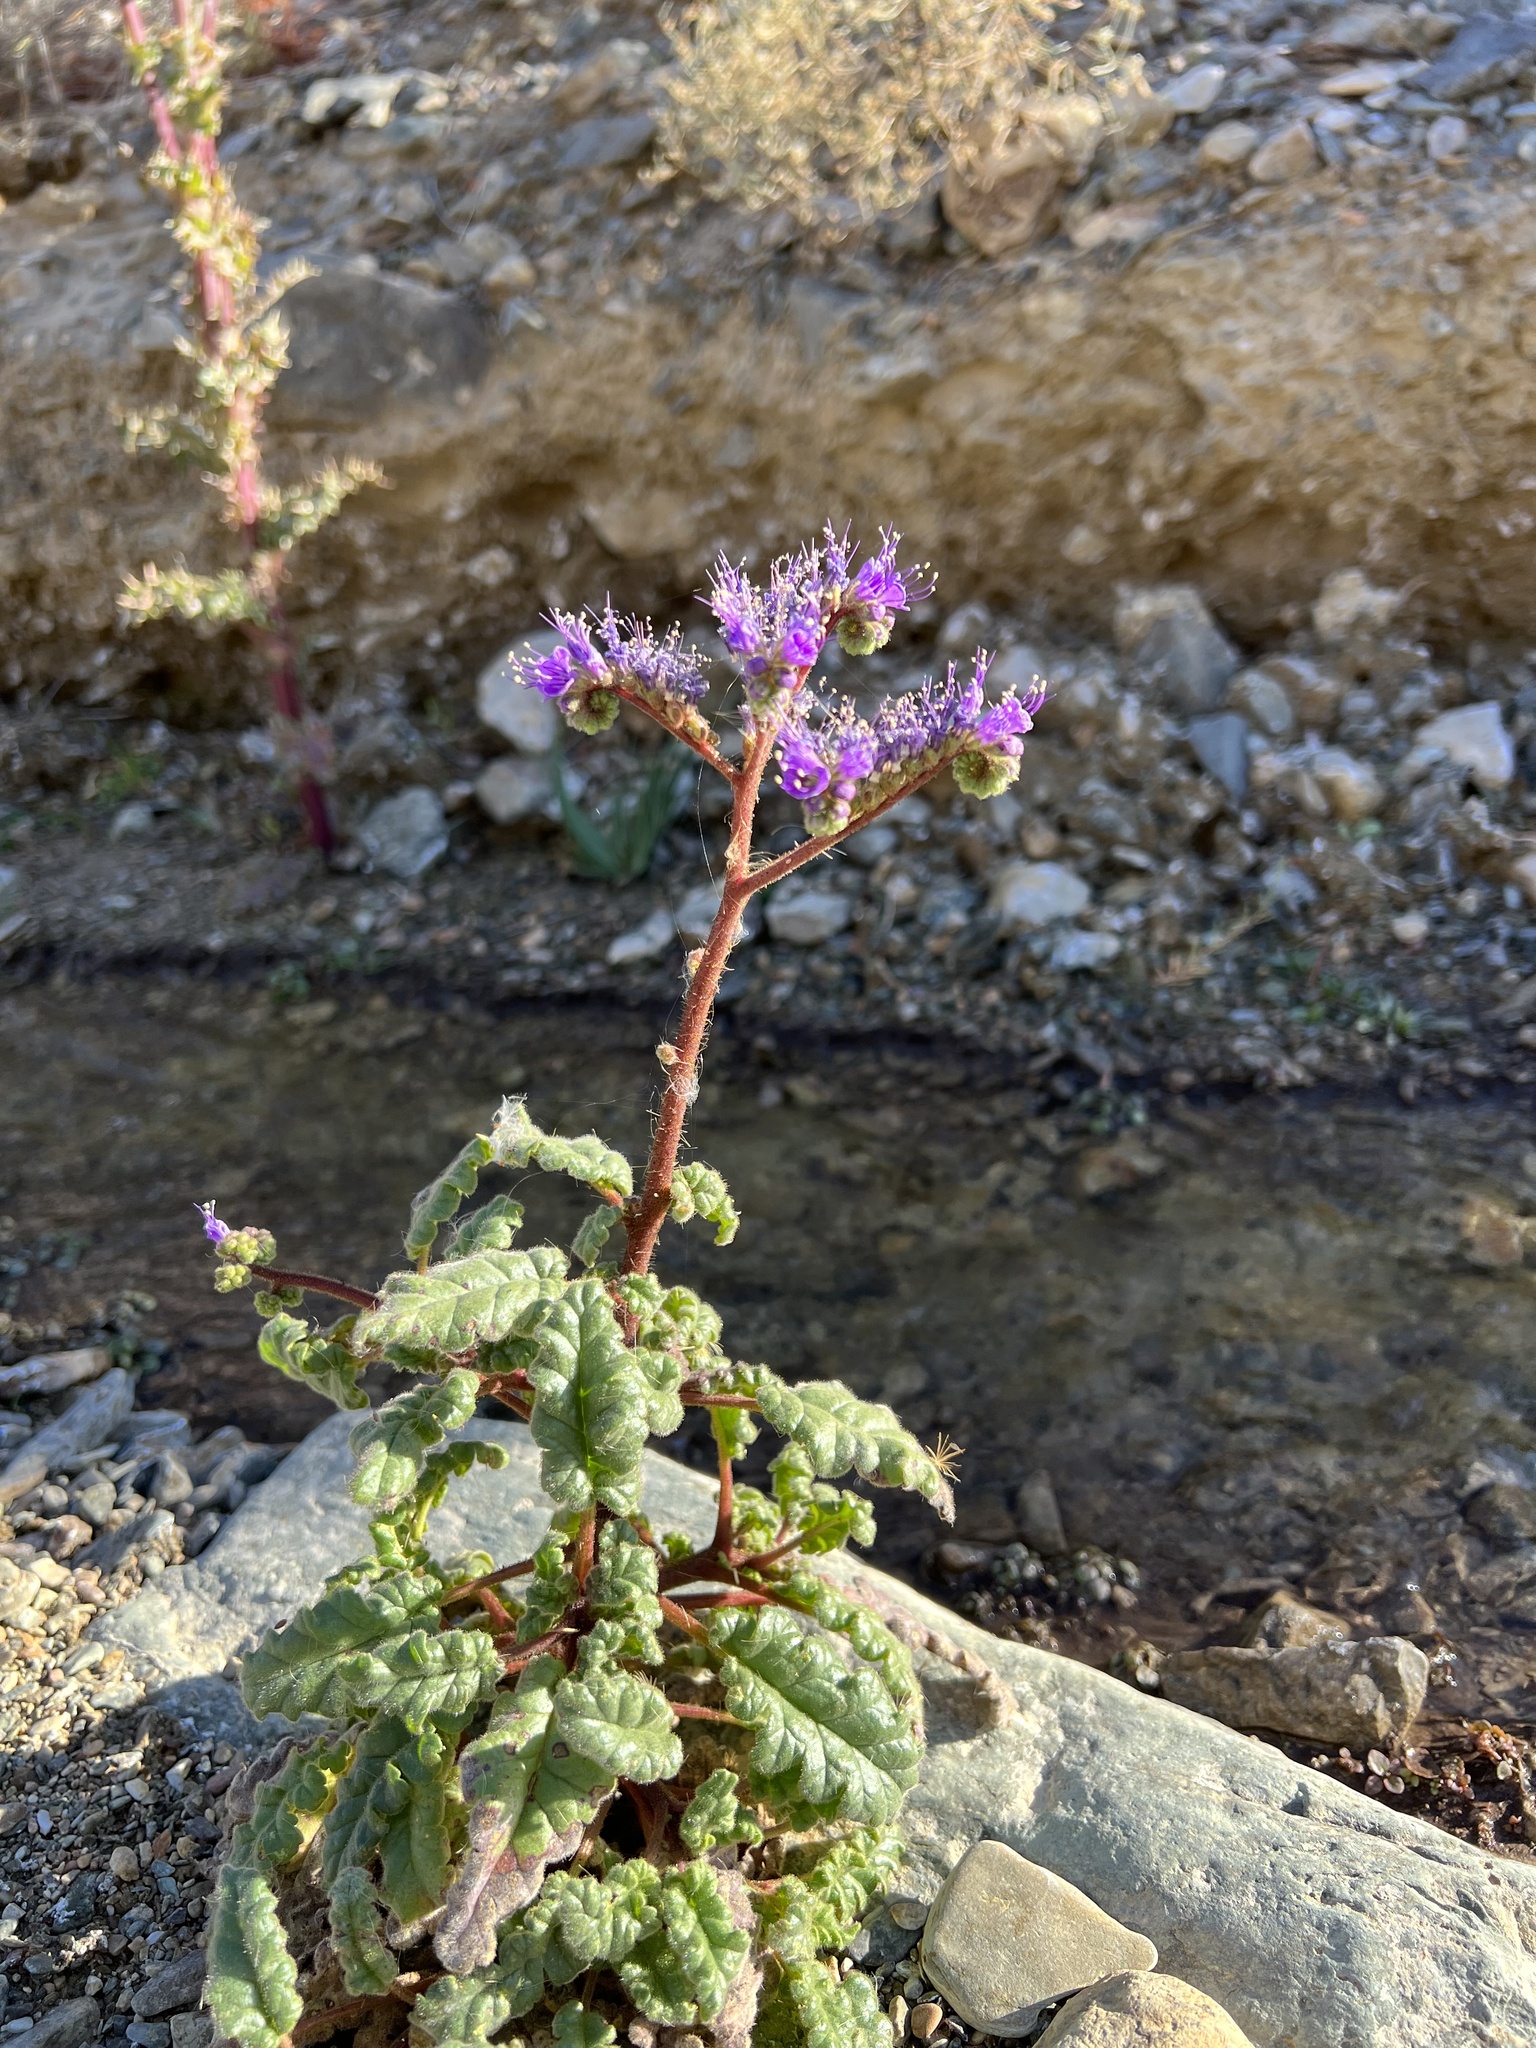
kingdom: Plantae
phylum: Tracheophyta
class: Magnoliopsida
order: Boraginales
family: Hydrophyllaceae
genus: Phacelia
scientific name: Phacelia crenulata
